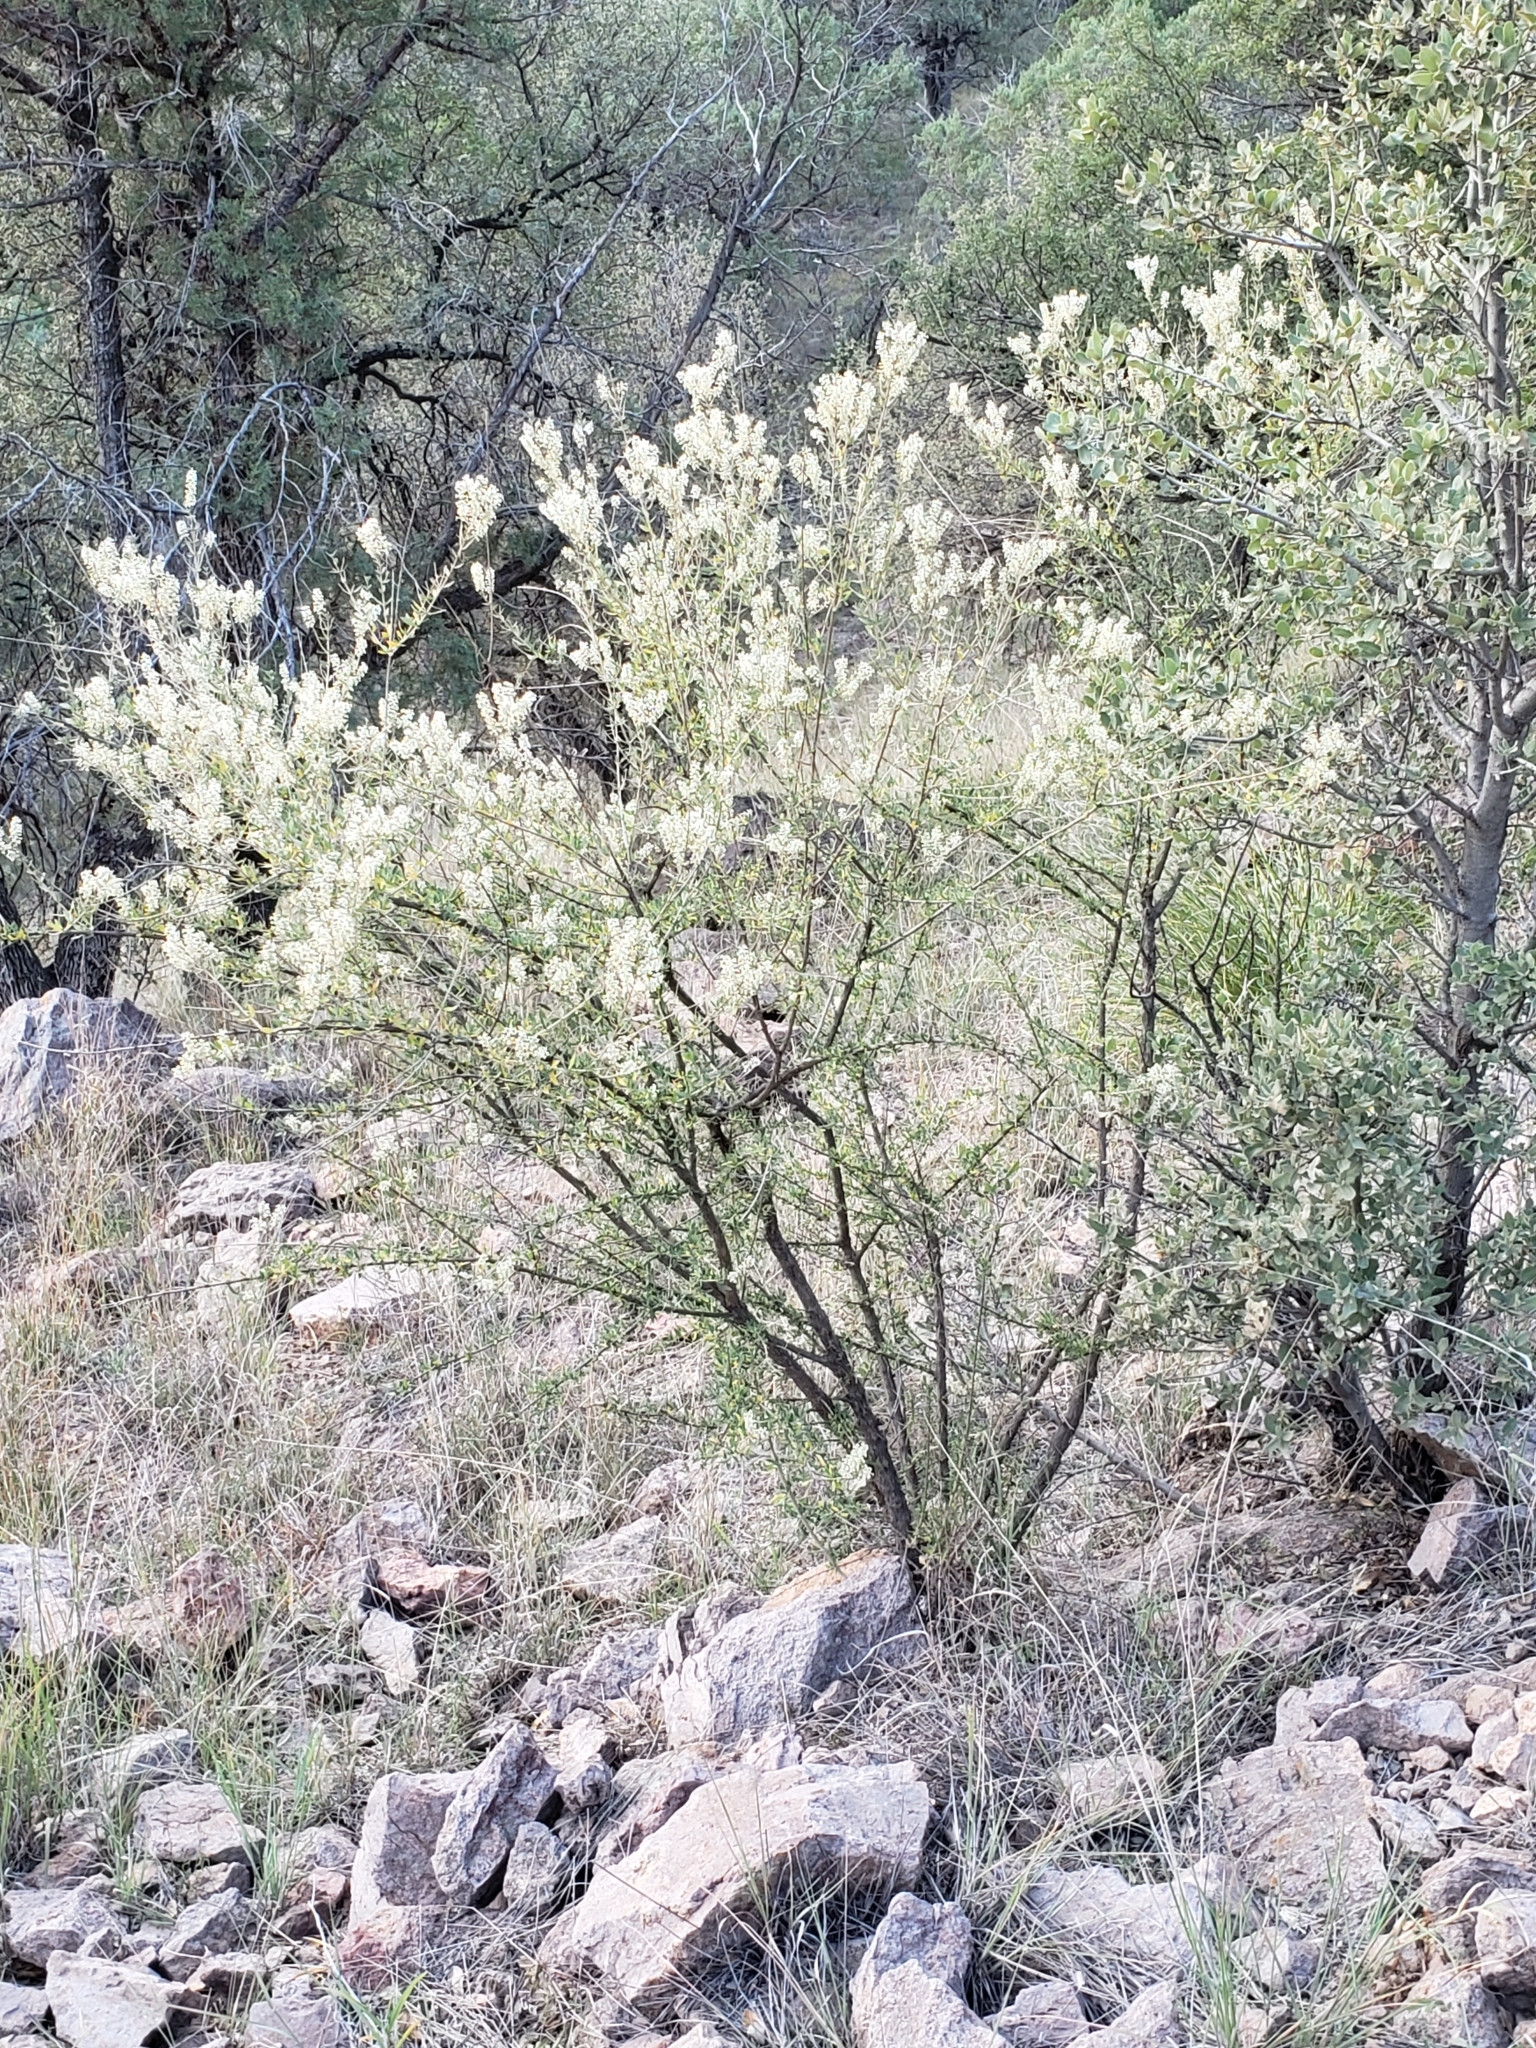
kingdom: Plantae
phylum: Tracheophyta
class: Magnoliopsida
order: Lamiales
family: Verbenaceae
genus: Aloysia
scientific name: Aloysia gratissima
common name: Common bee-brush
